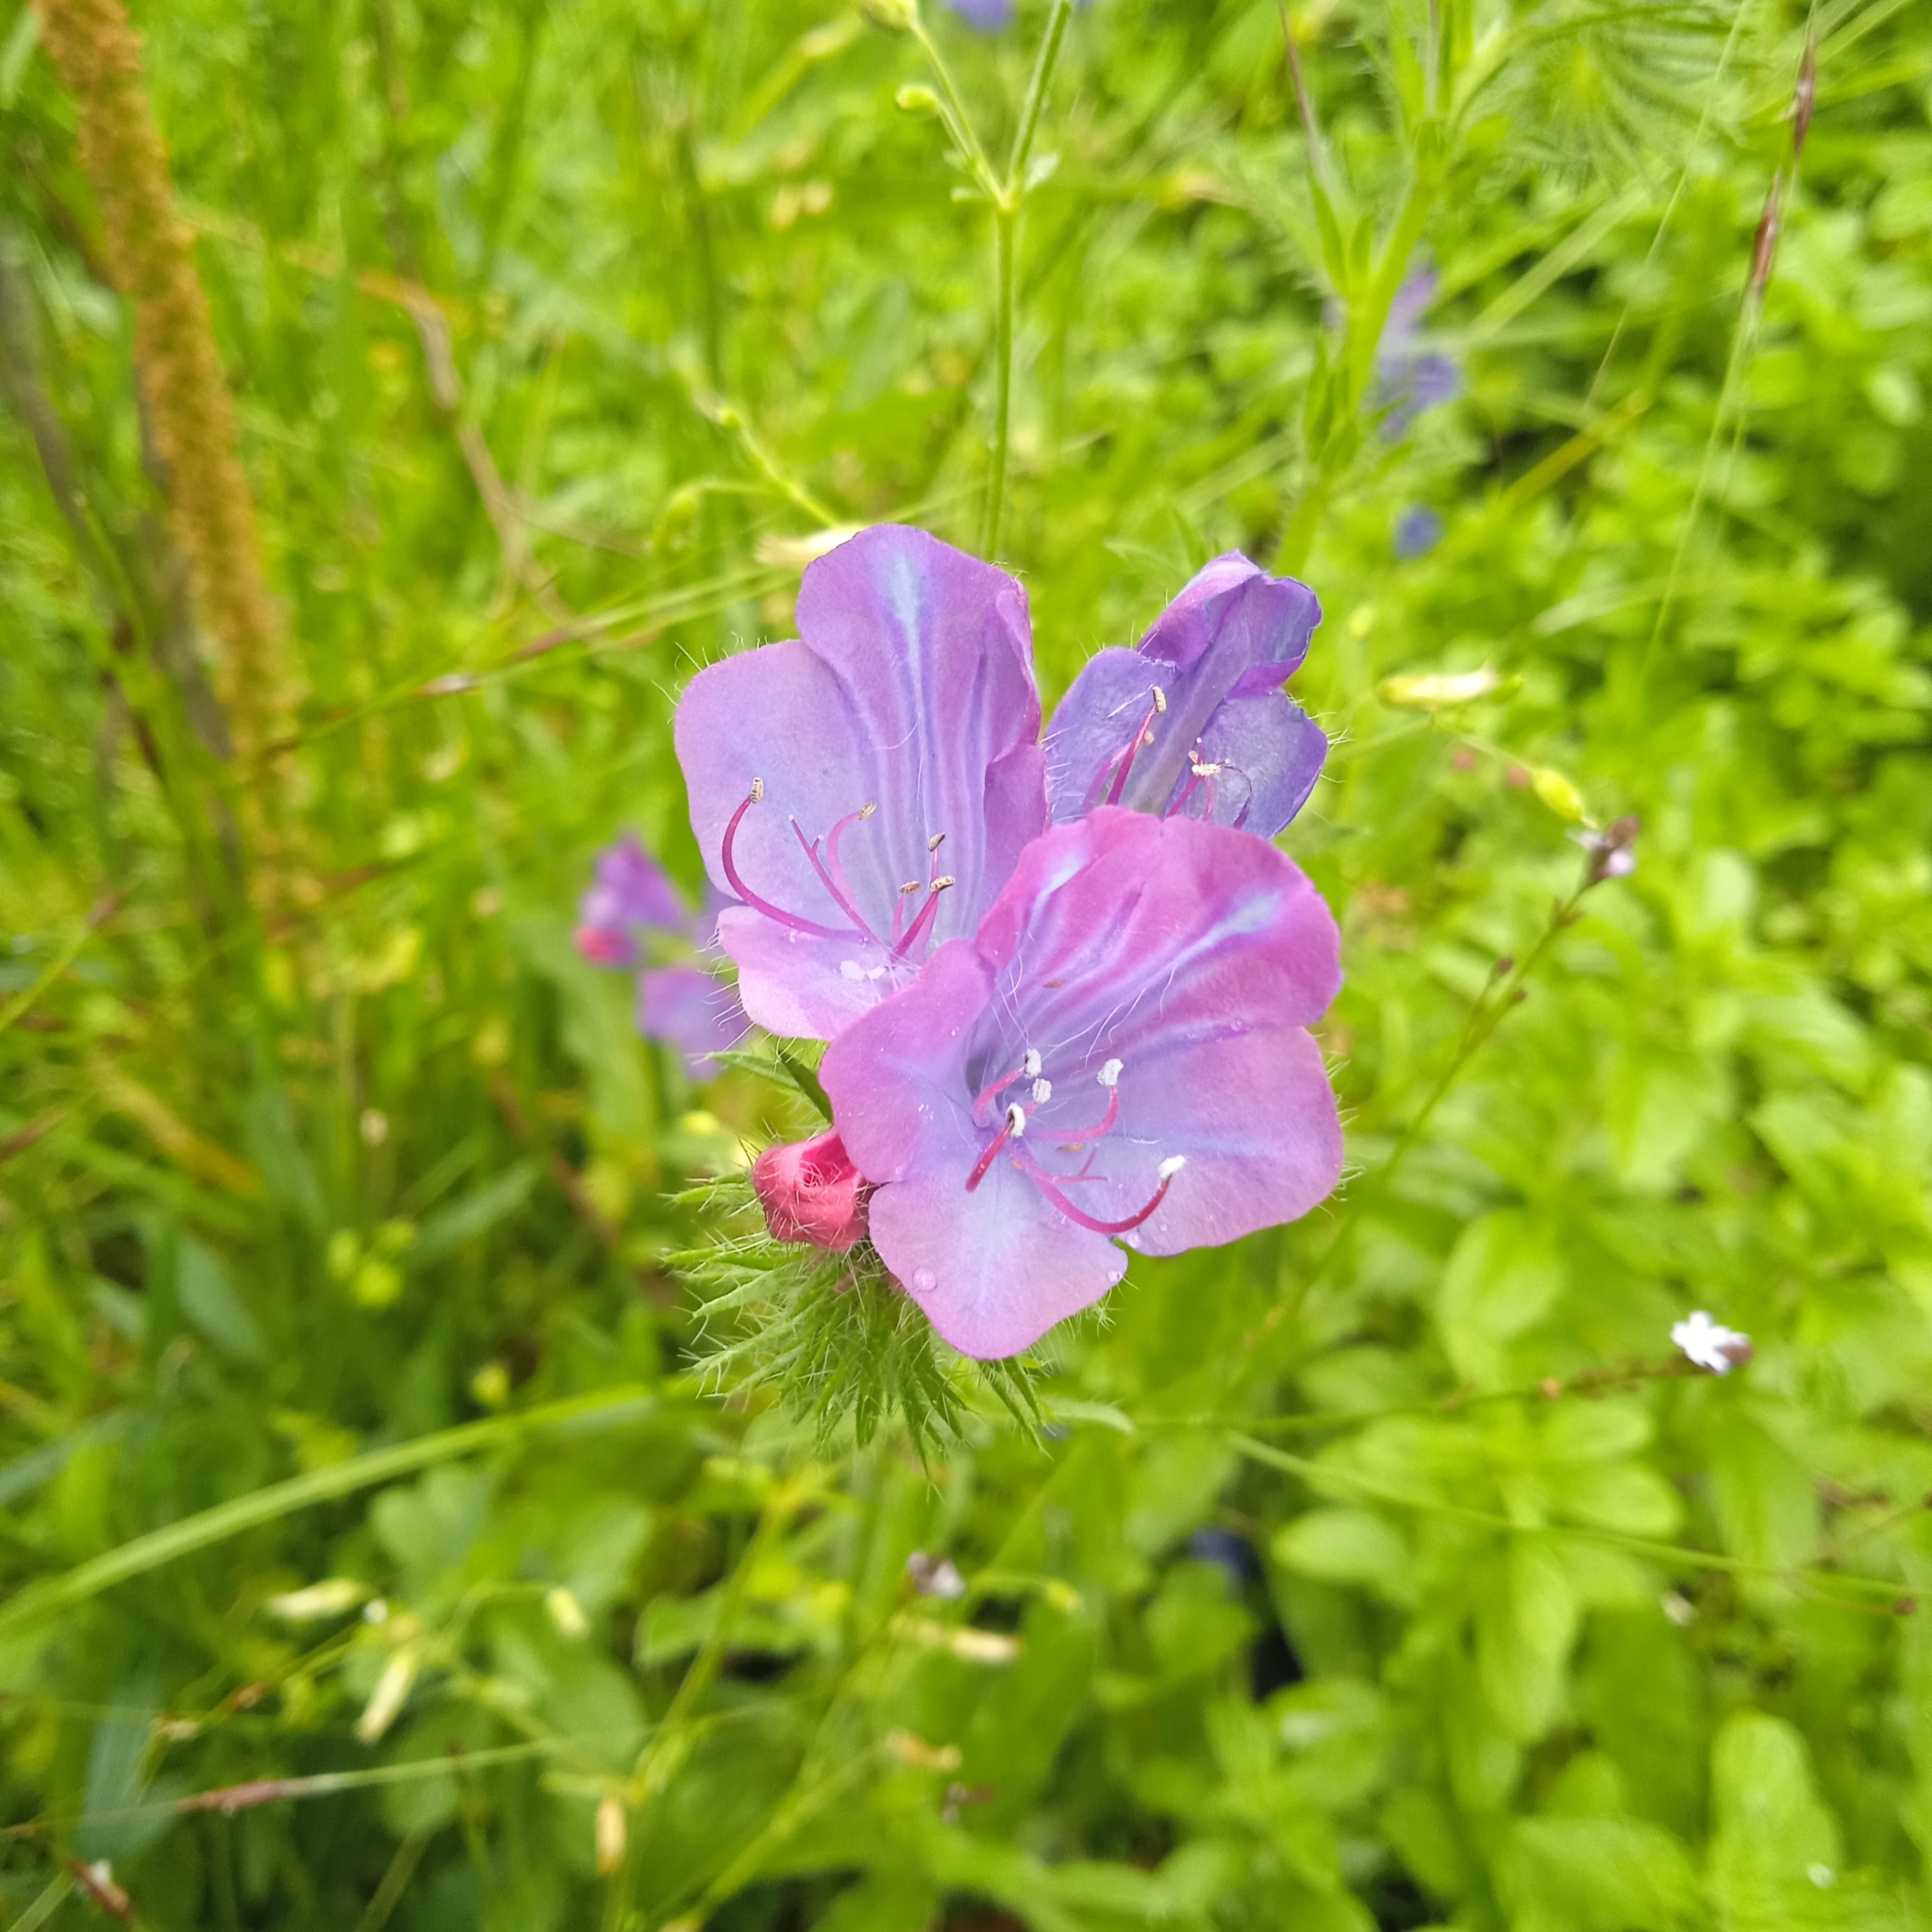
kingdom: Plantae
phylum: Tracheophyta
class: Magnoliopsida
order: Boraginales
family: Boraginaceae
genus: Echium
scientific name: Echium plantagineum
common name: Purple viper's-bugloss
